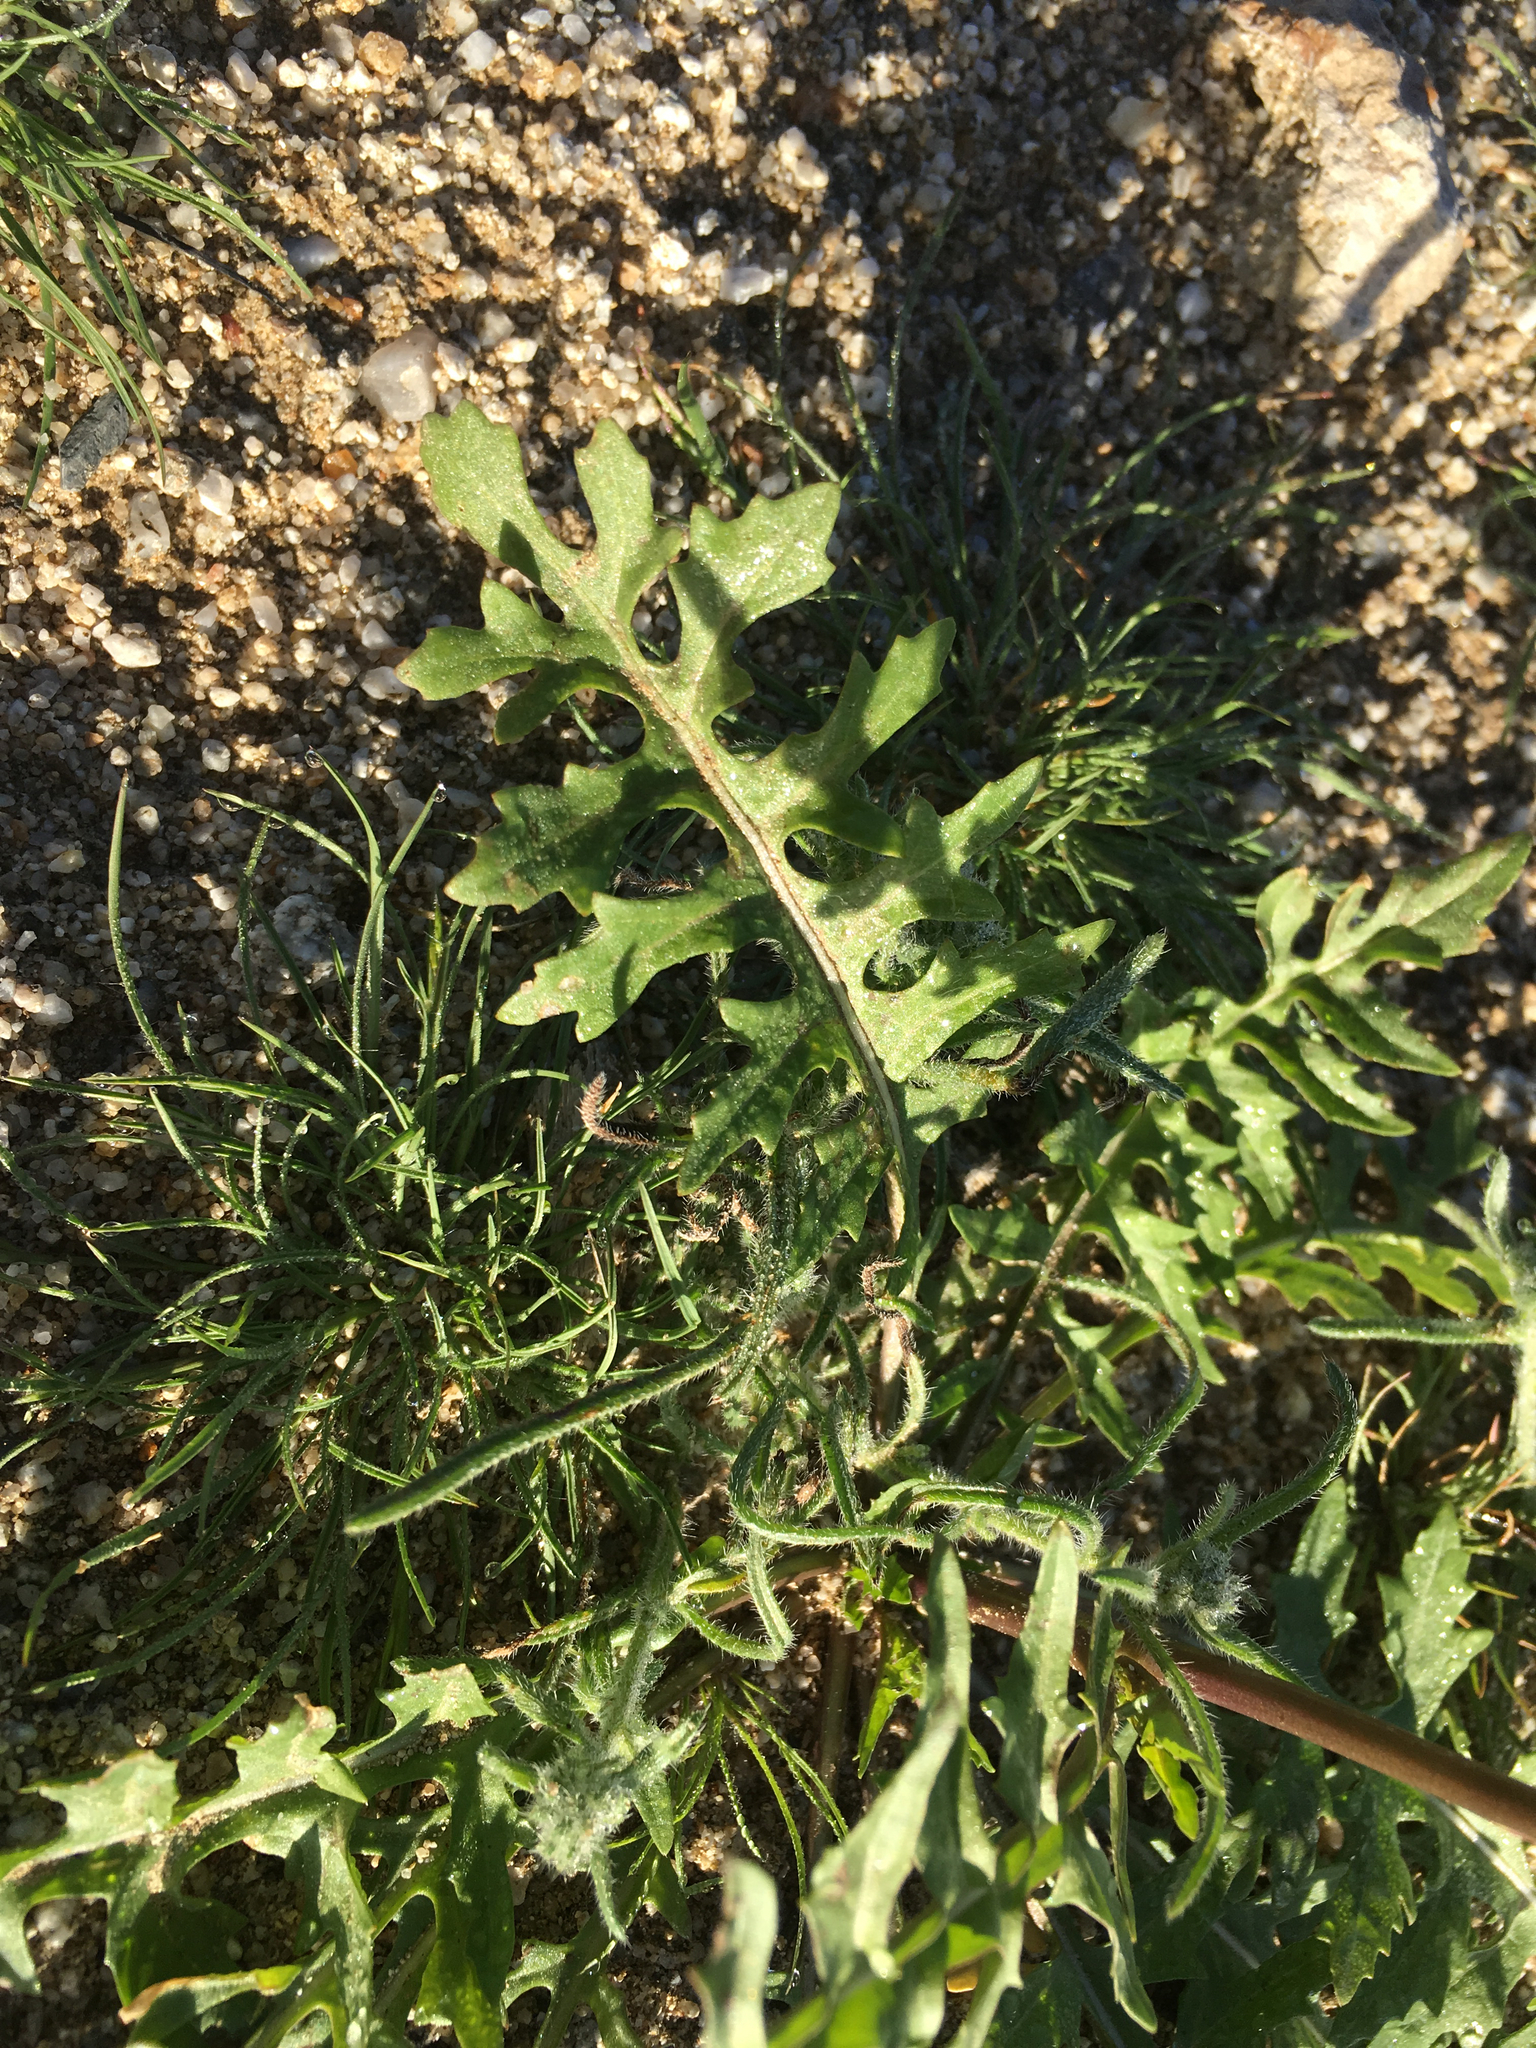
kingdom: Plantae
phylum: Tracheophyta
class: Magnoliopsida
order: Brassicales
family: Brassicaceae
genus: Sisymbrium
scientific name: Sisymbrium irio
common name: London rocket
